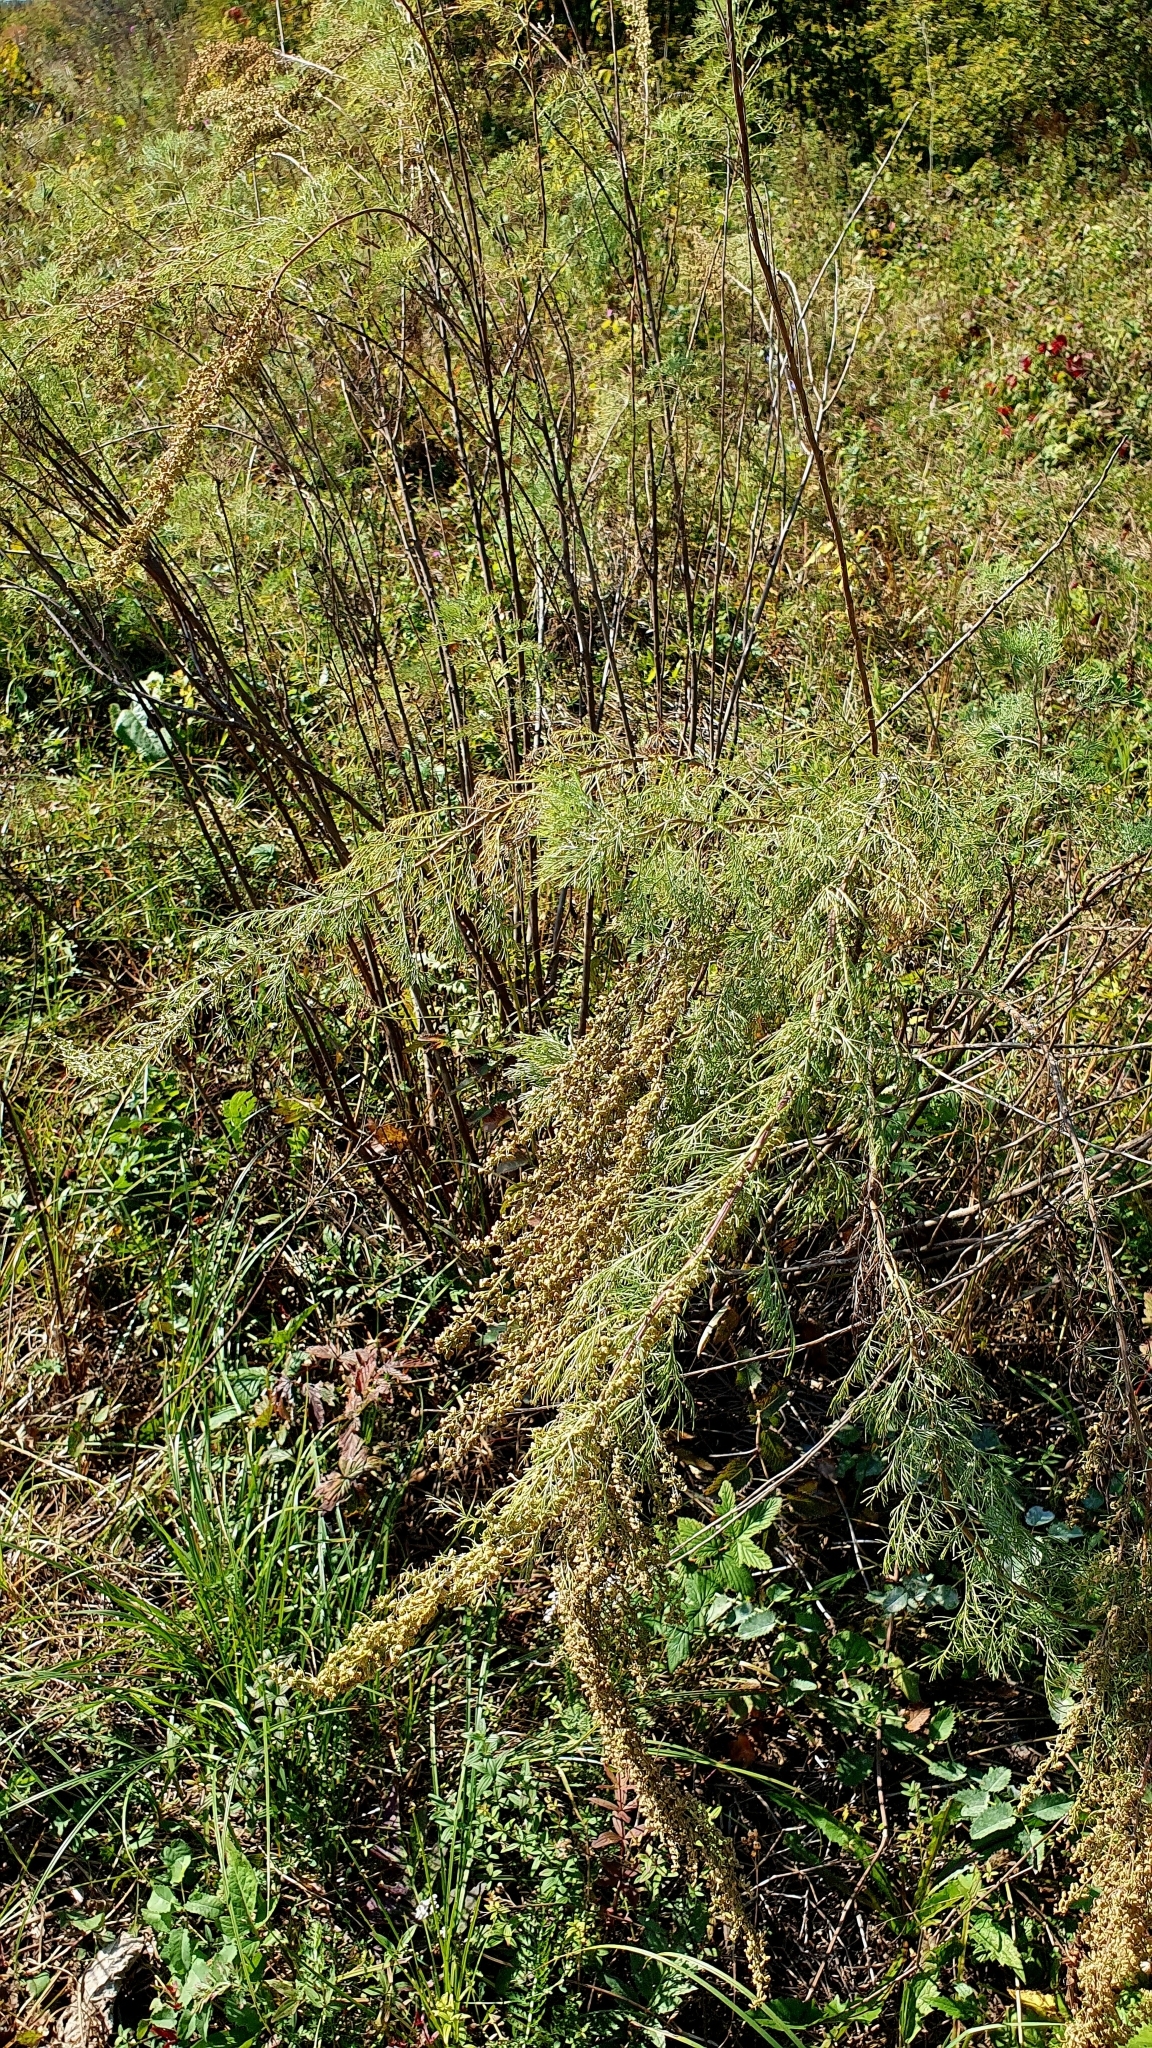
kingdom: Plantae
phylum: Tracheophyta
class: Magnoliopsida
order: Asterales
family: Asteraceae
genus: Artemisia
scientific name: Artemisia abrotanum
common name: Southernwood
